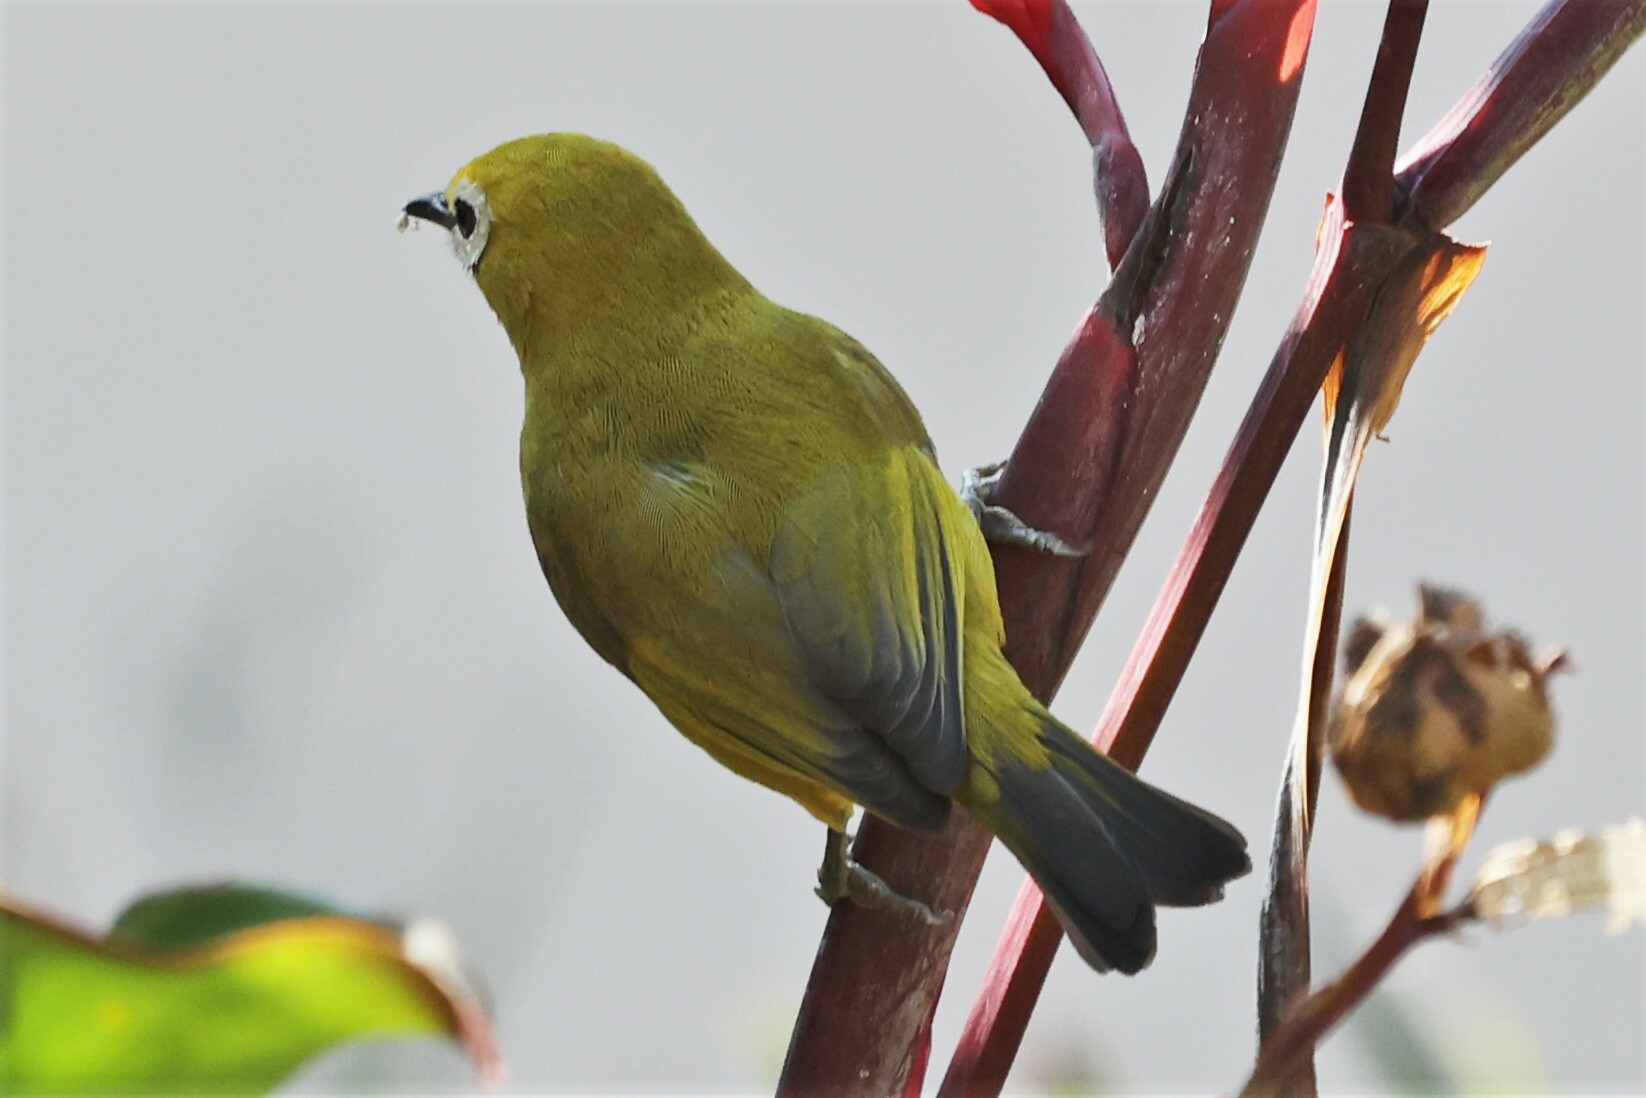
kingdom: Animalia
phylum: Chordata
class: Aves
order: Passeriformes
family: Zosteropidae
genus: Zosterops
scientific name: Zosterops stuhlmanni
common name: Green white-eye
